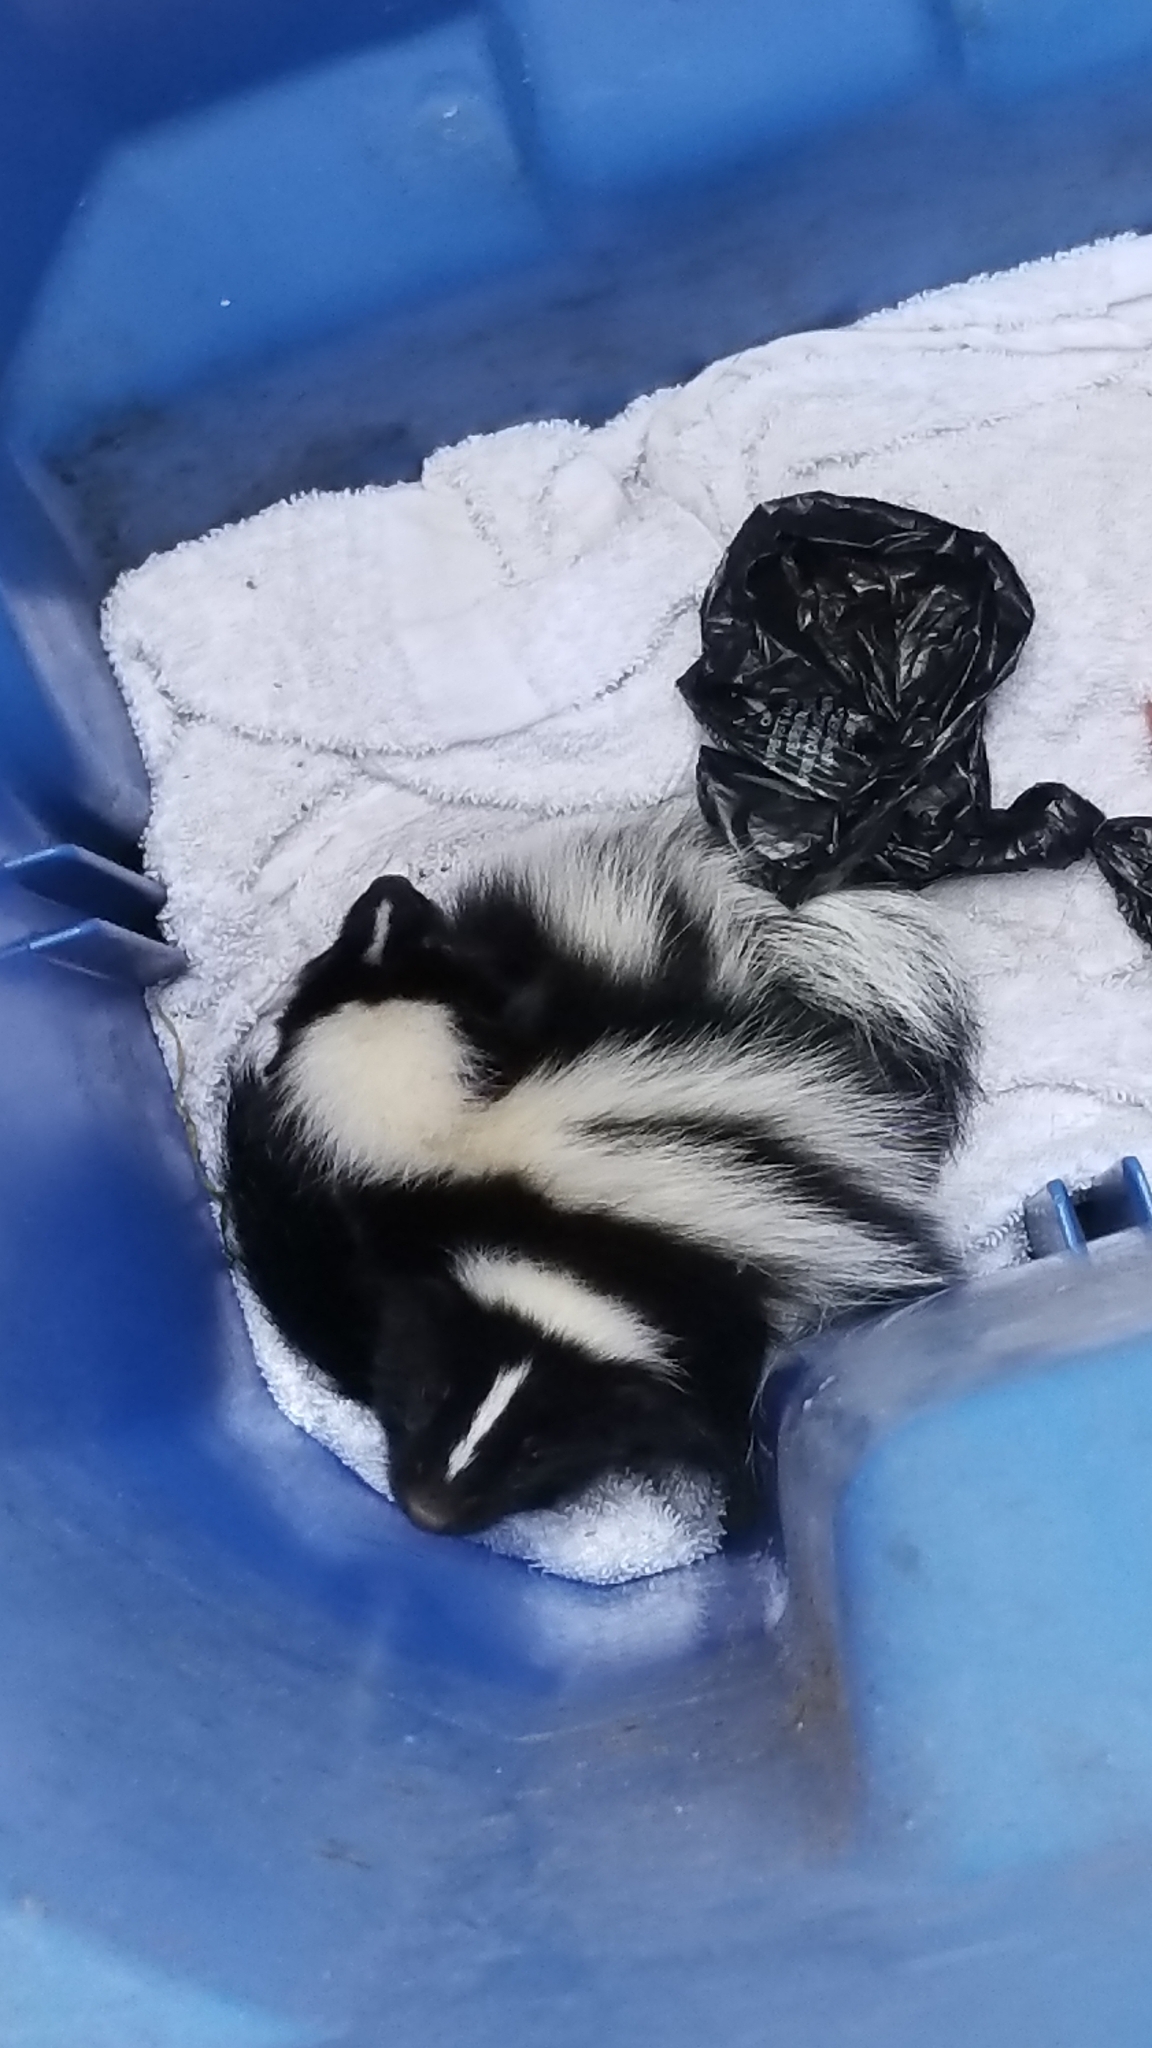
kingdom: Animalia
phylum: Chordata
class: Mammalia
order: Carnivora
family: Mephitidae
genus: Mephitis
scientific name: Mephitis mephitis
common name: Striped skunk
